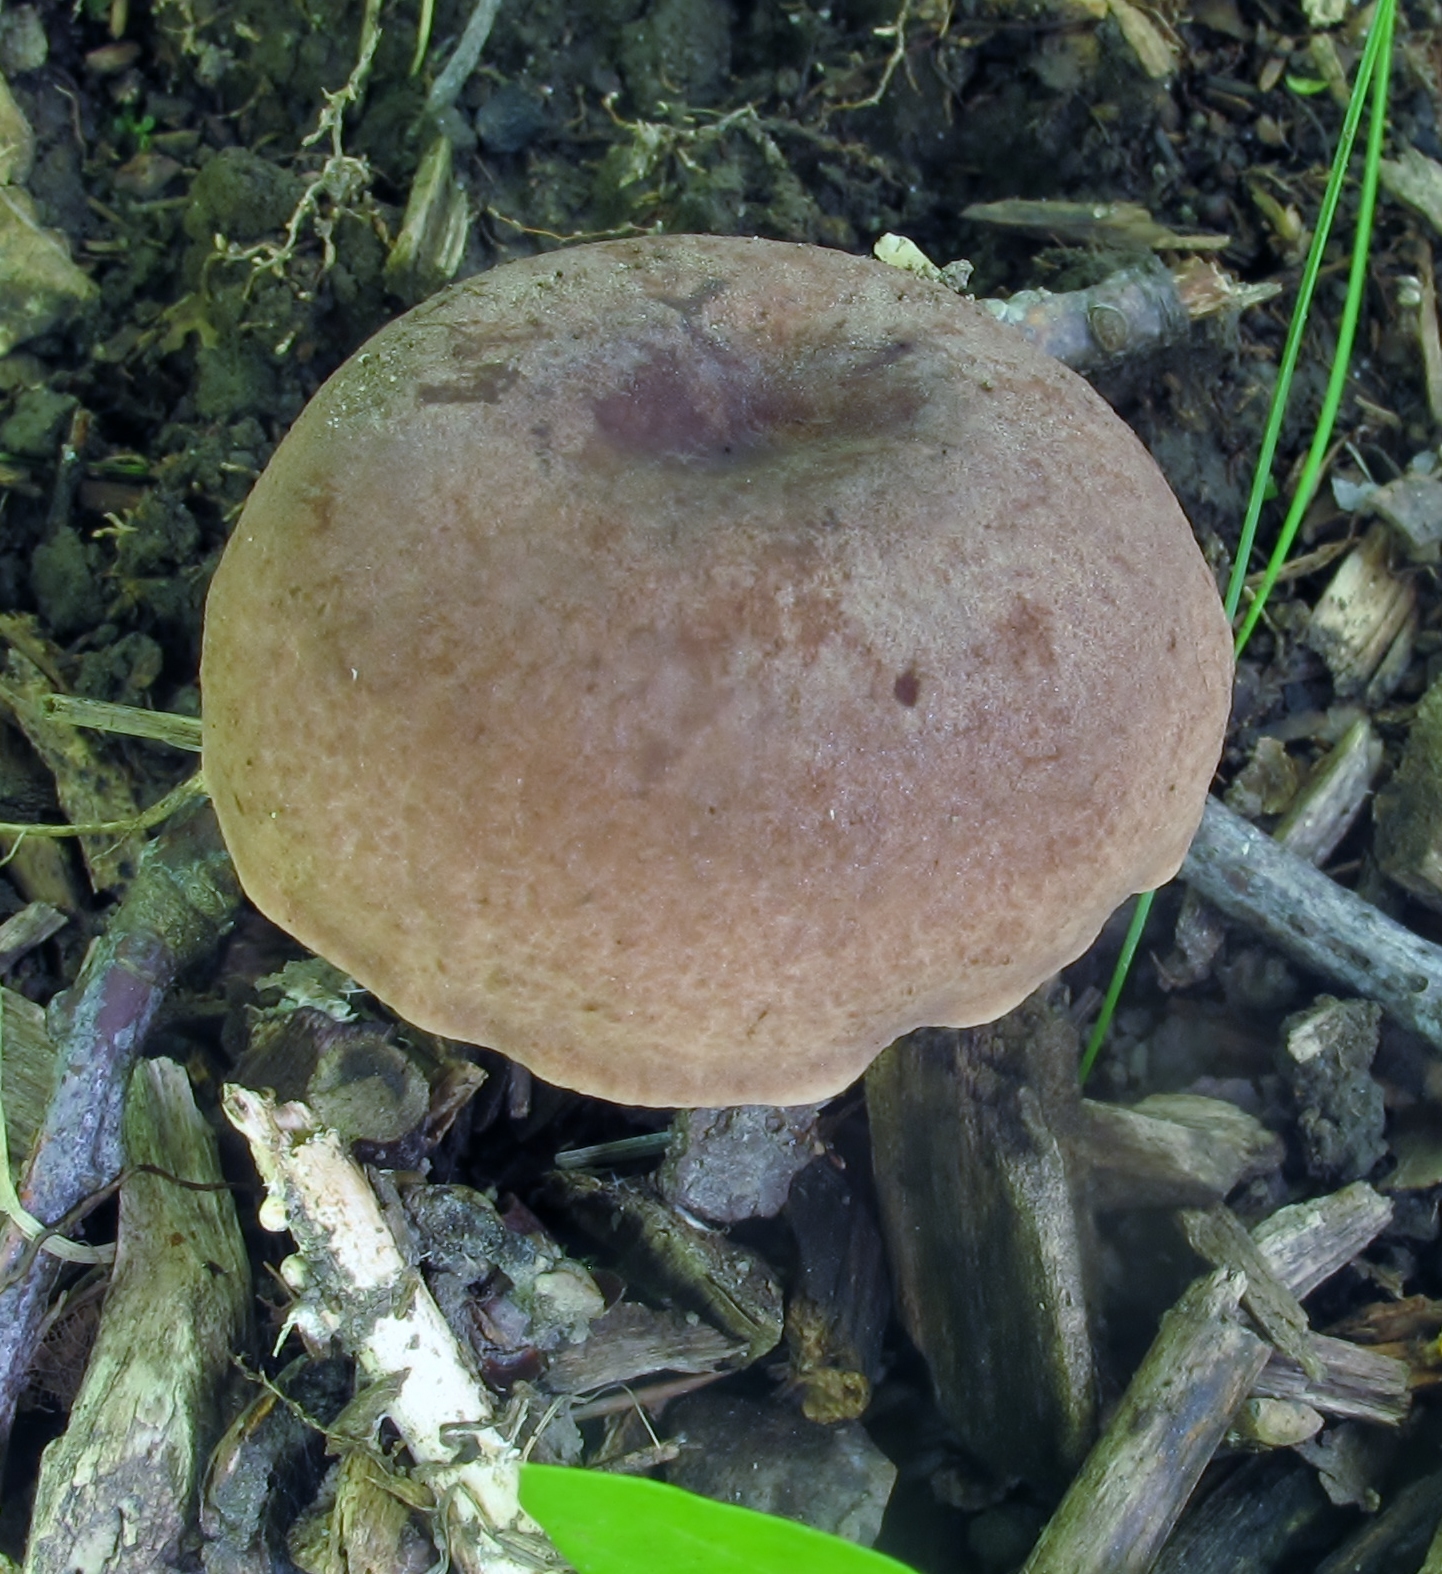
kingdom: Fungi
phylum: Basidiomycota
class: Agaricomycetes
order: Russulales
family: Russulaceae
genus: Lactarius
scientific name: Lactarius quietus
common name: Oak milk-cap
